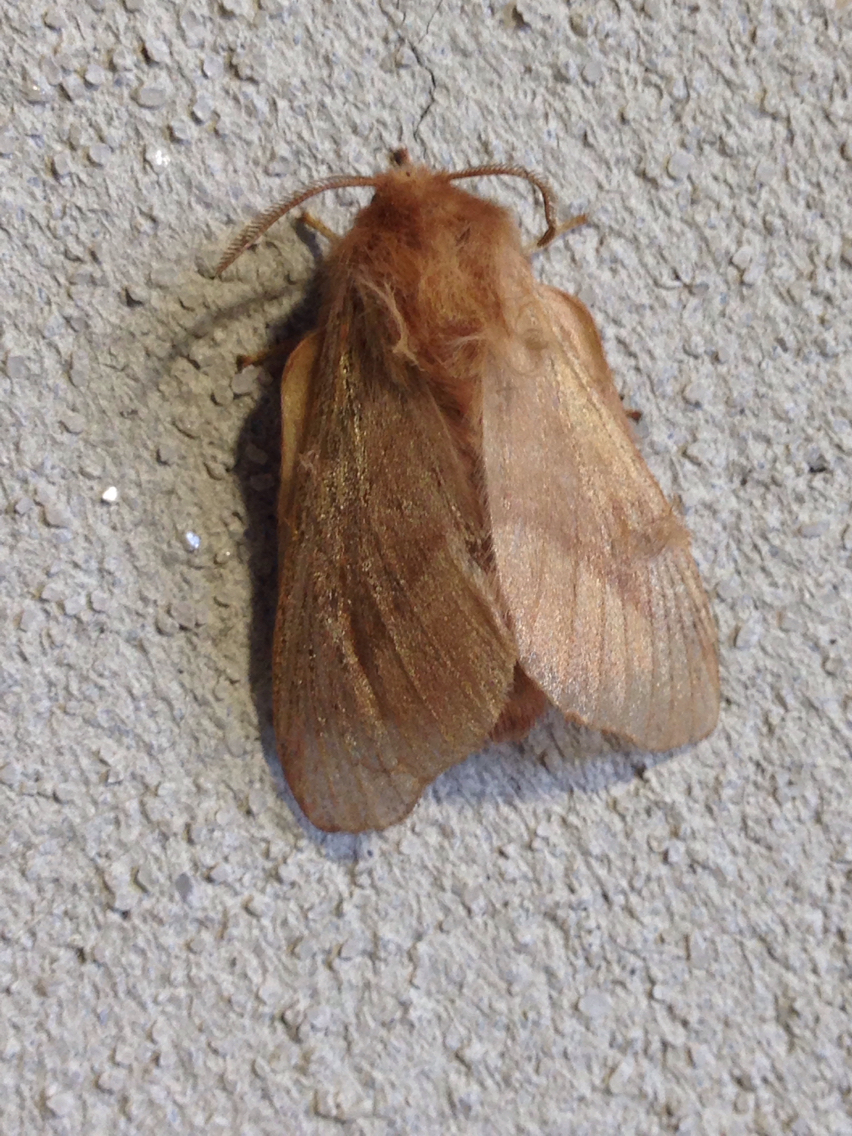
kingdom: Animalia
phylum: Arthropoda
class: Insecta
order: Lepidoptera
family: Lasiocampidae
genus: Malacosoma
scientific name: Malacosoma disstria
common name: Forest tent caterpillar
